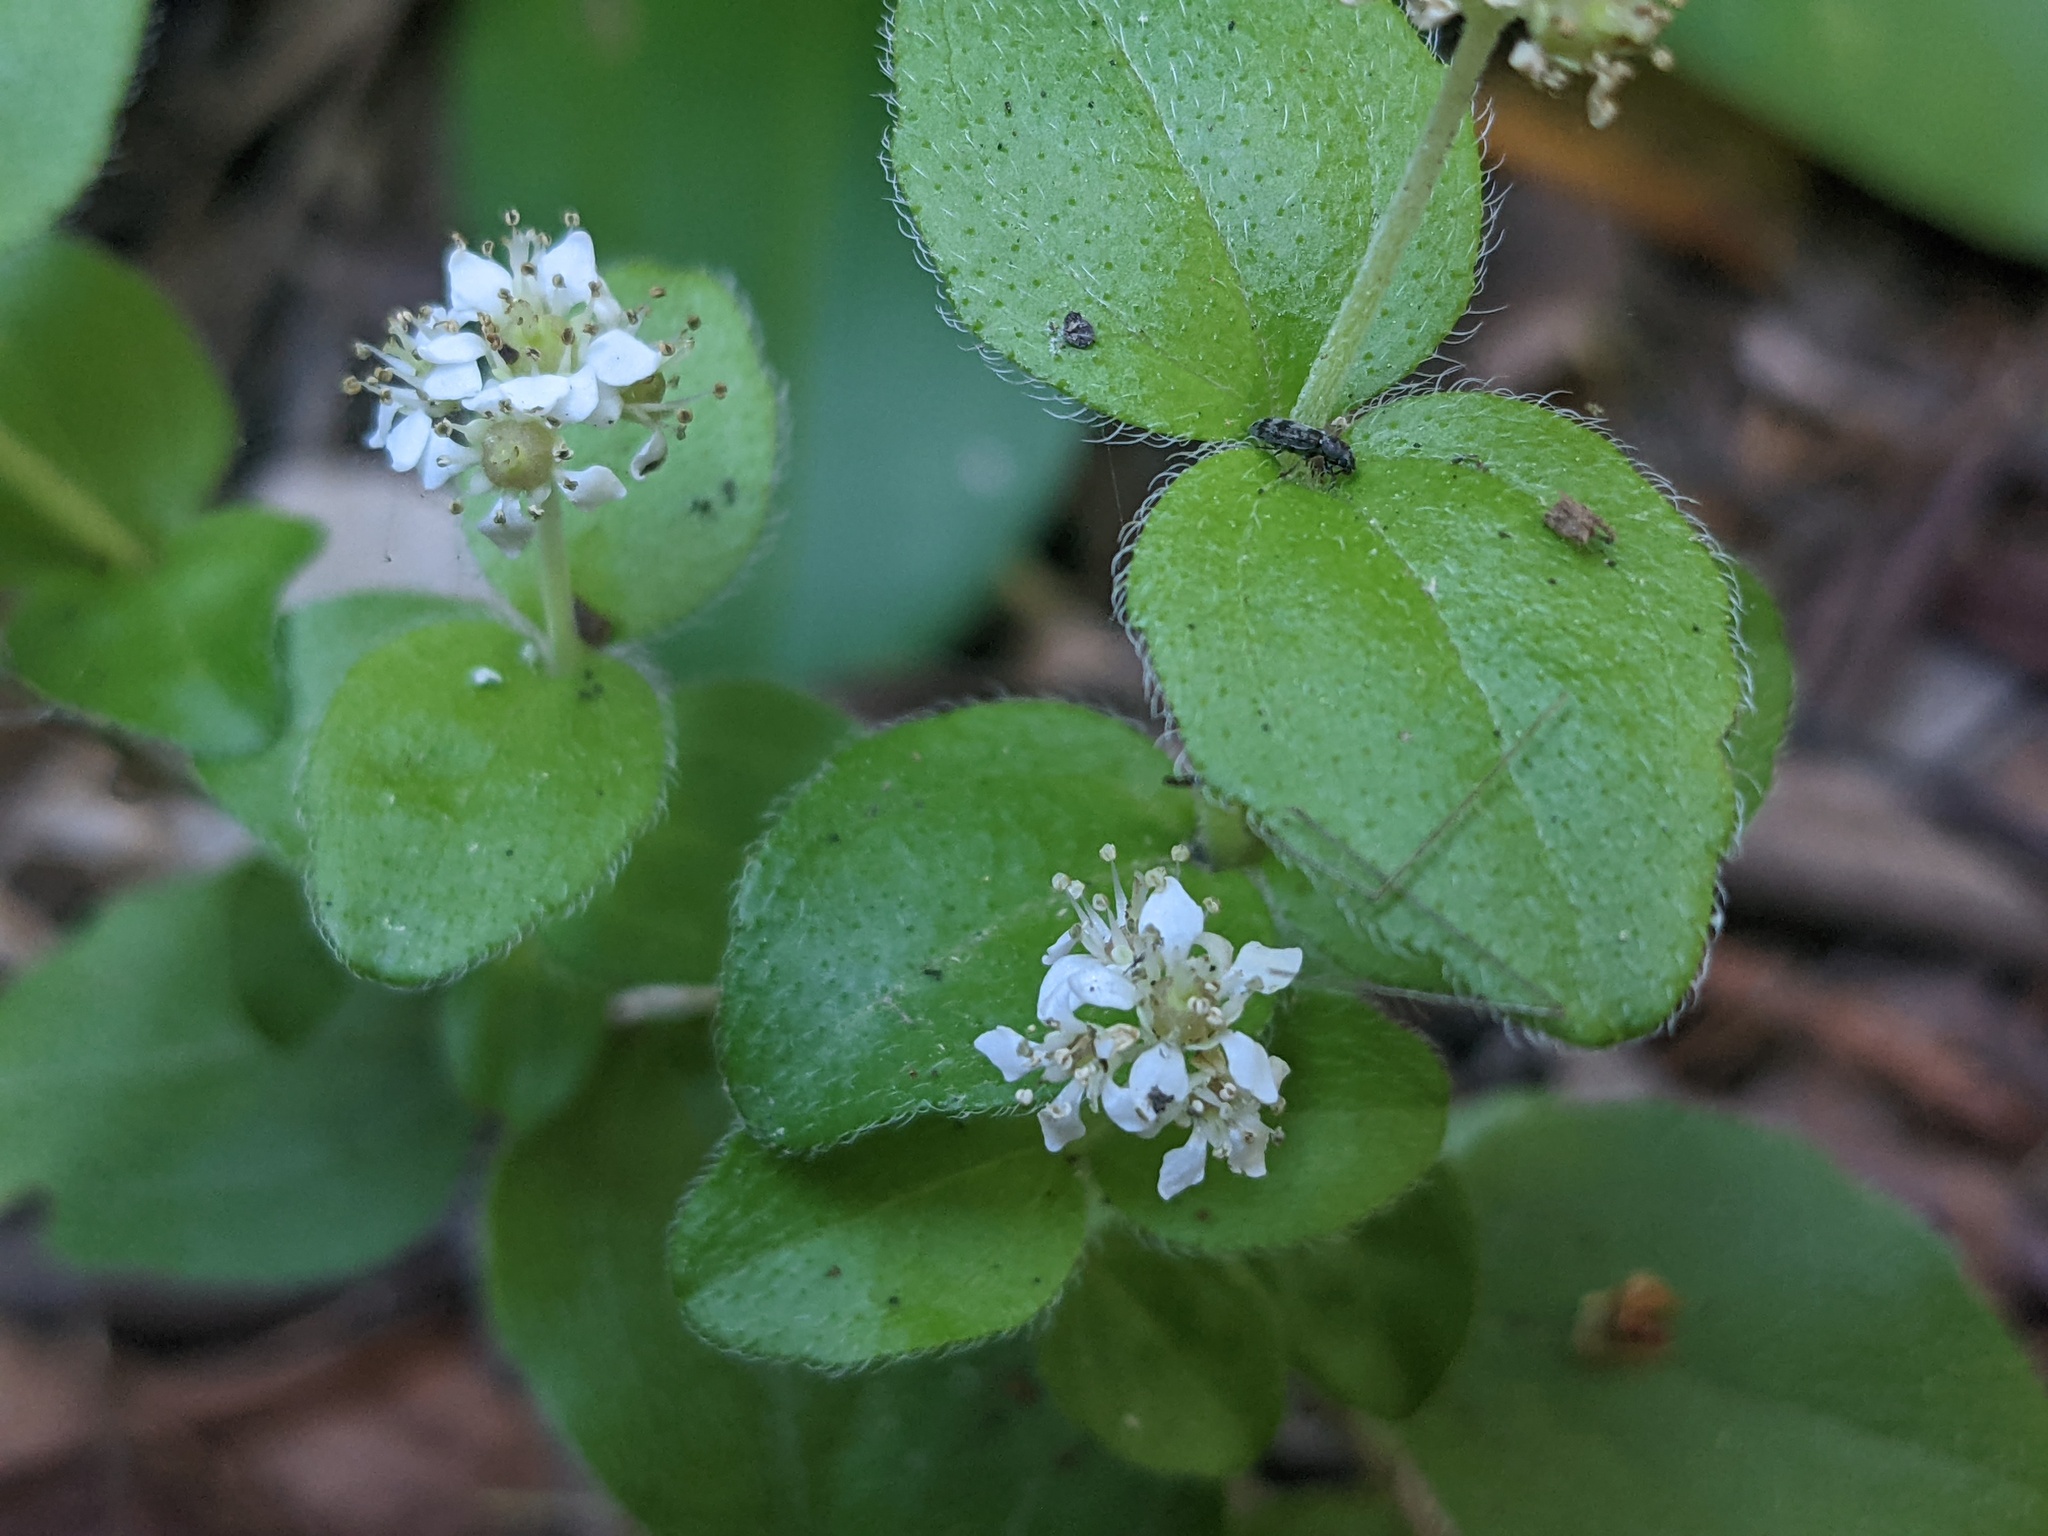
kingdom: Plantae
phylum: Tracheophyta
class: Magnoliopsida
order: Cornales
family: Hydrangeaceae
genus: Whipplea
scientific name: Whipplea modesta
